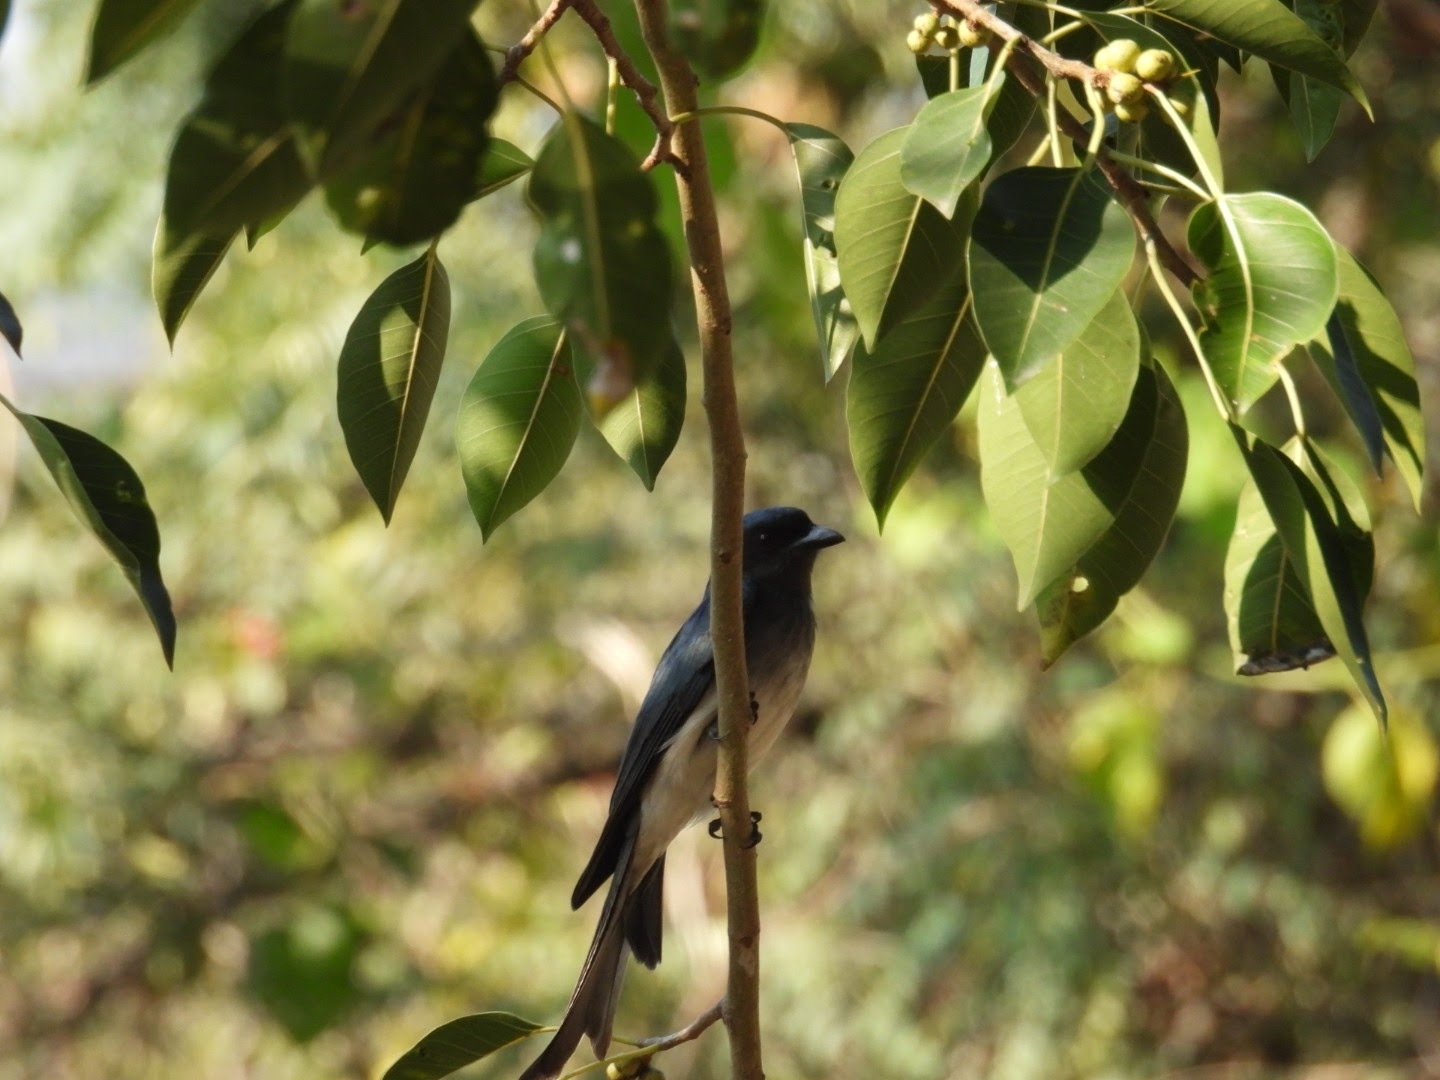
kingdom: Animalia
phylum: Chordata
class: Aves
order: Passeriformes
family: Dicruridae
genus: Dicrurus
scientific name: Dicrurus caerulescens
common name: White-bellied drongo
